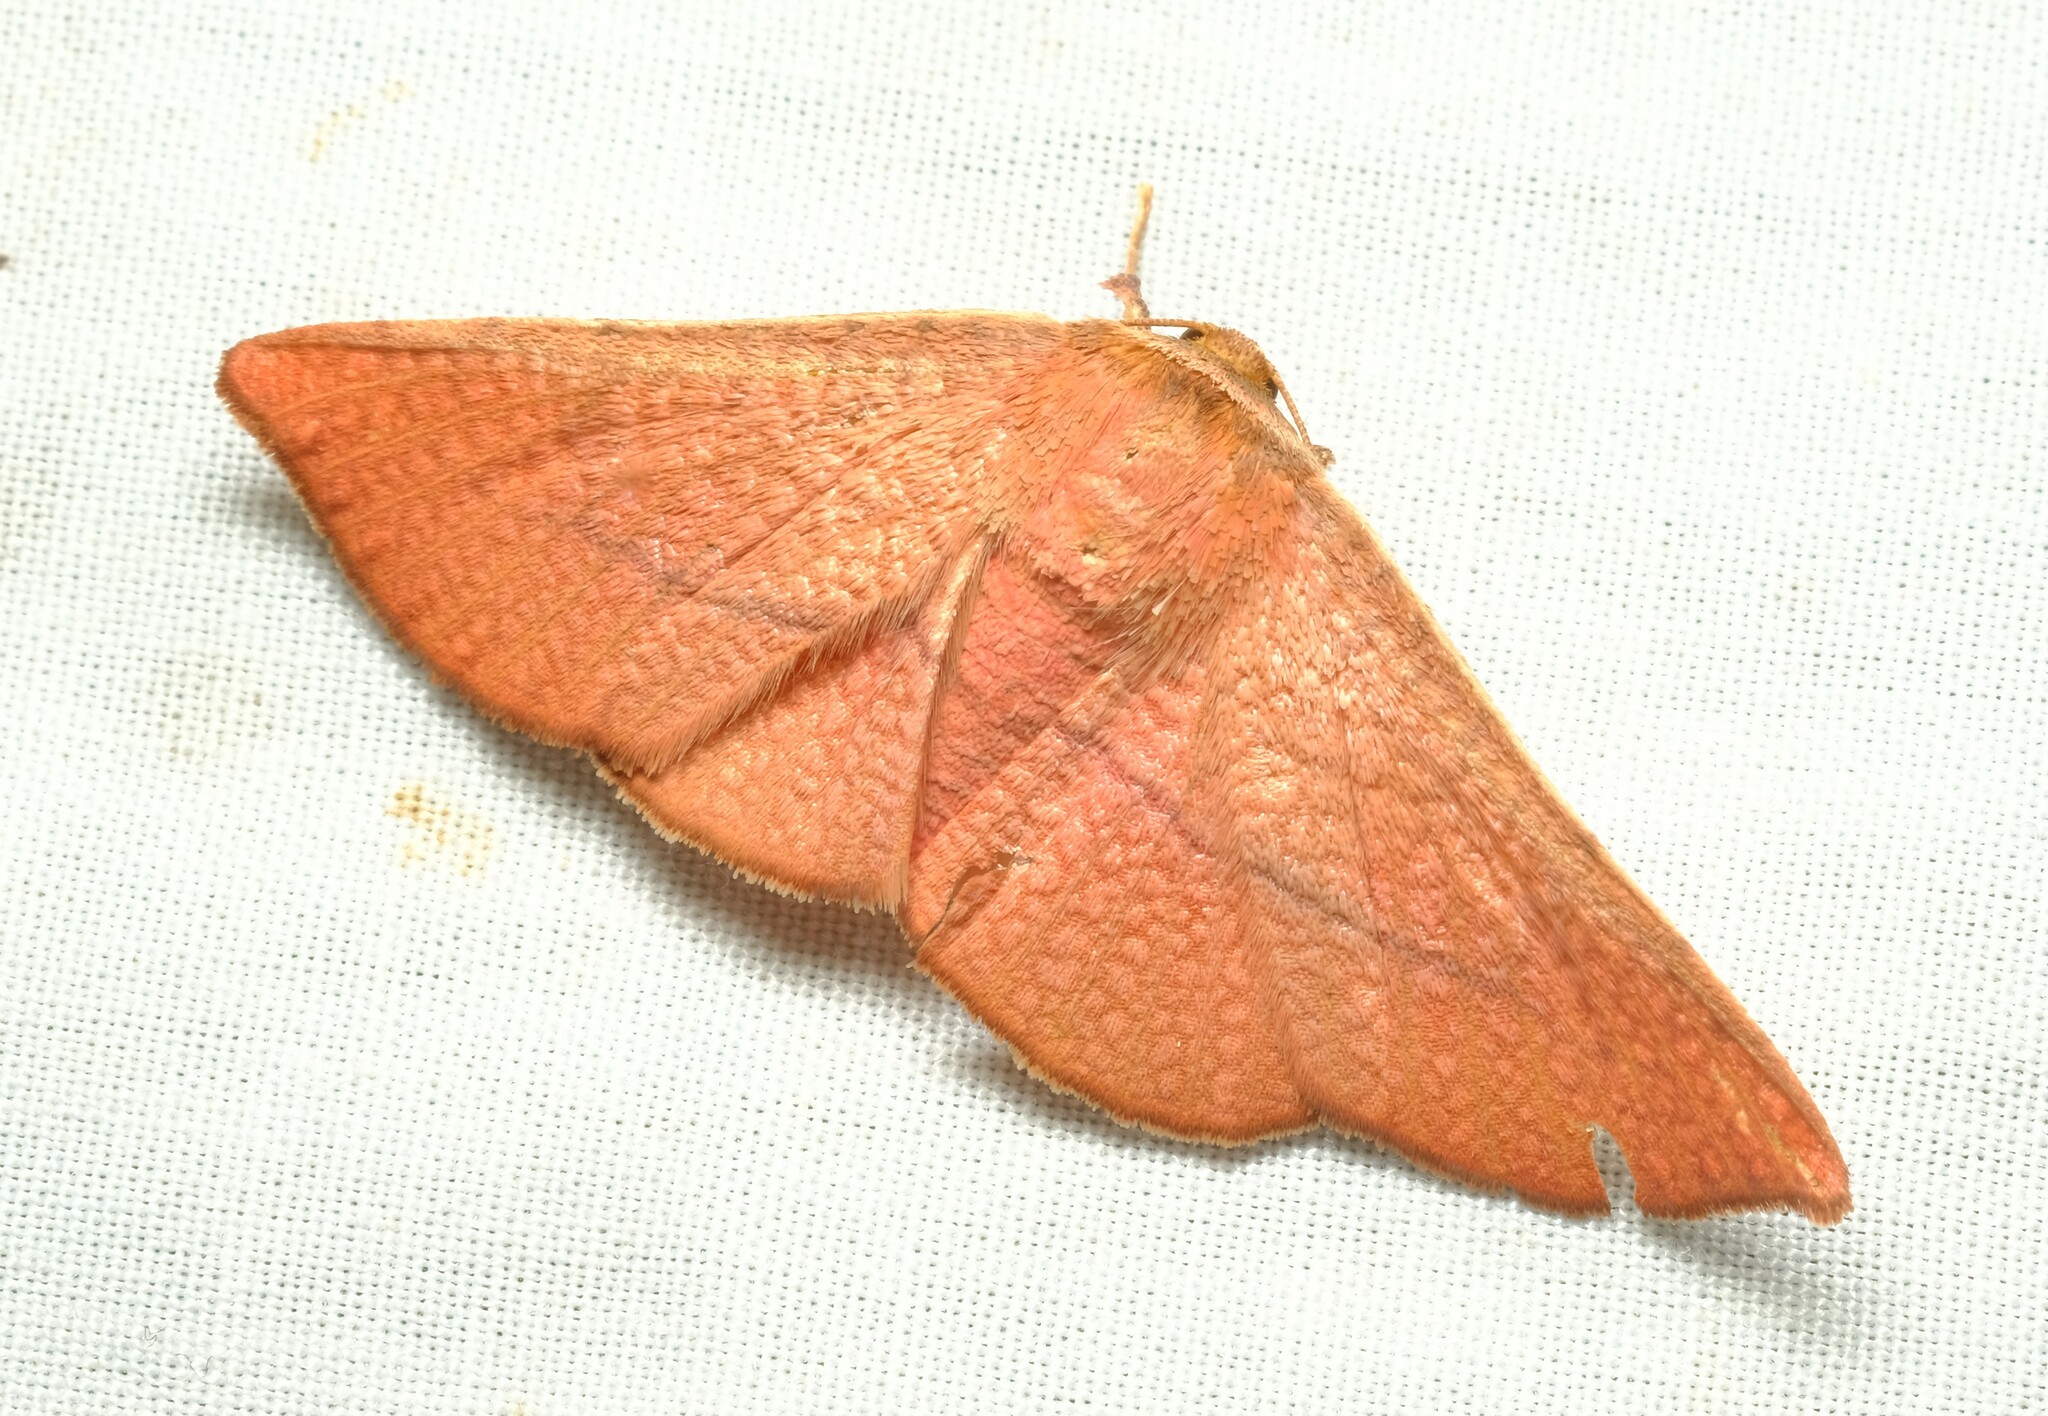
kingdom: Animalia
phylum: Arthropoda
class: Insecta
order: Lepidoptera
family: Thyrididae
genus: Aglaopus
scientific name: Aglaopus pyrrhata
